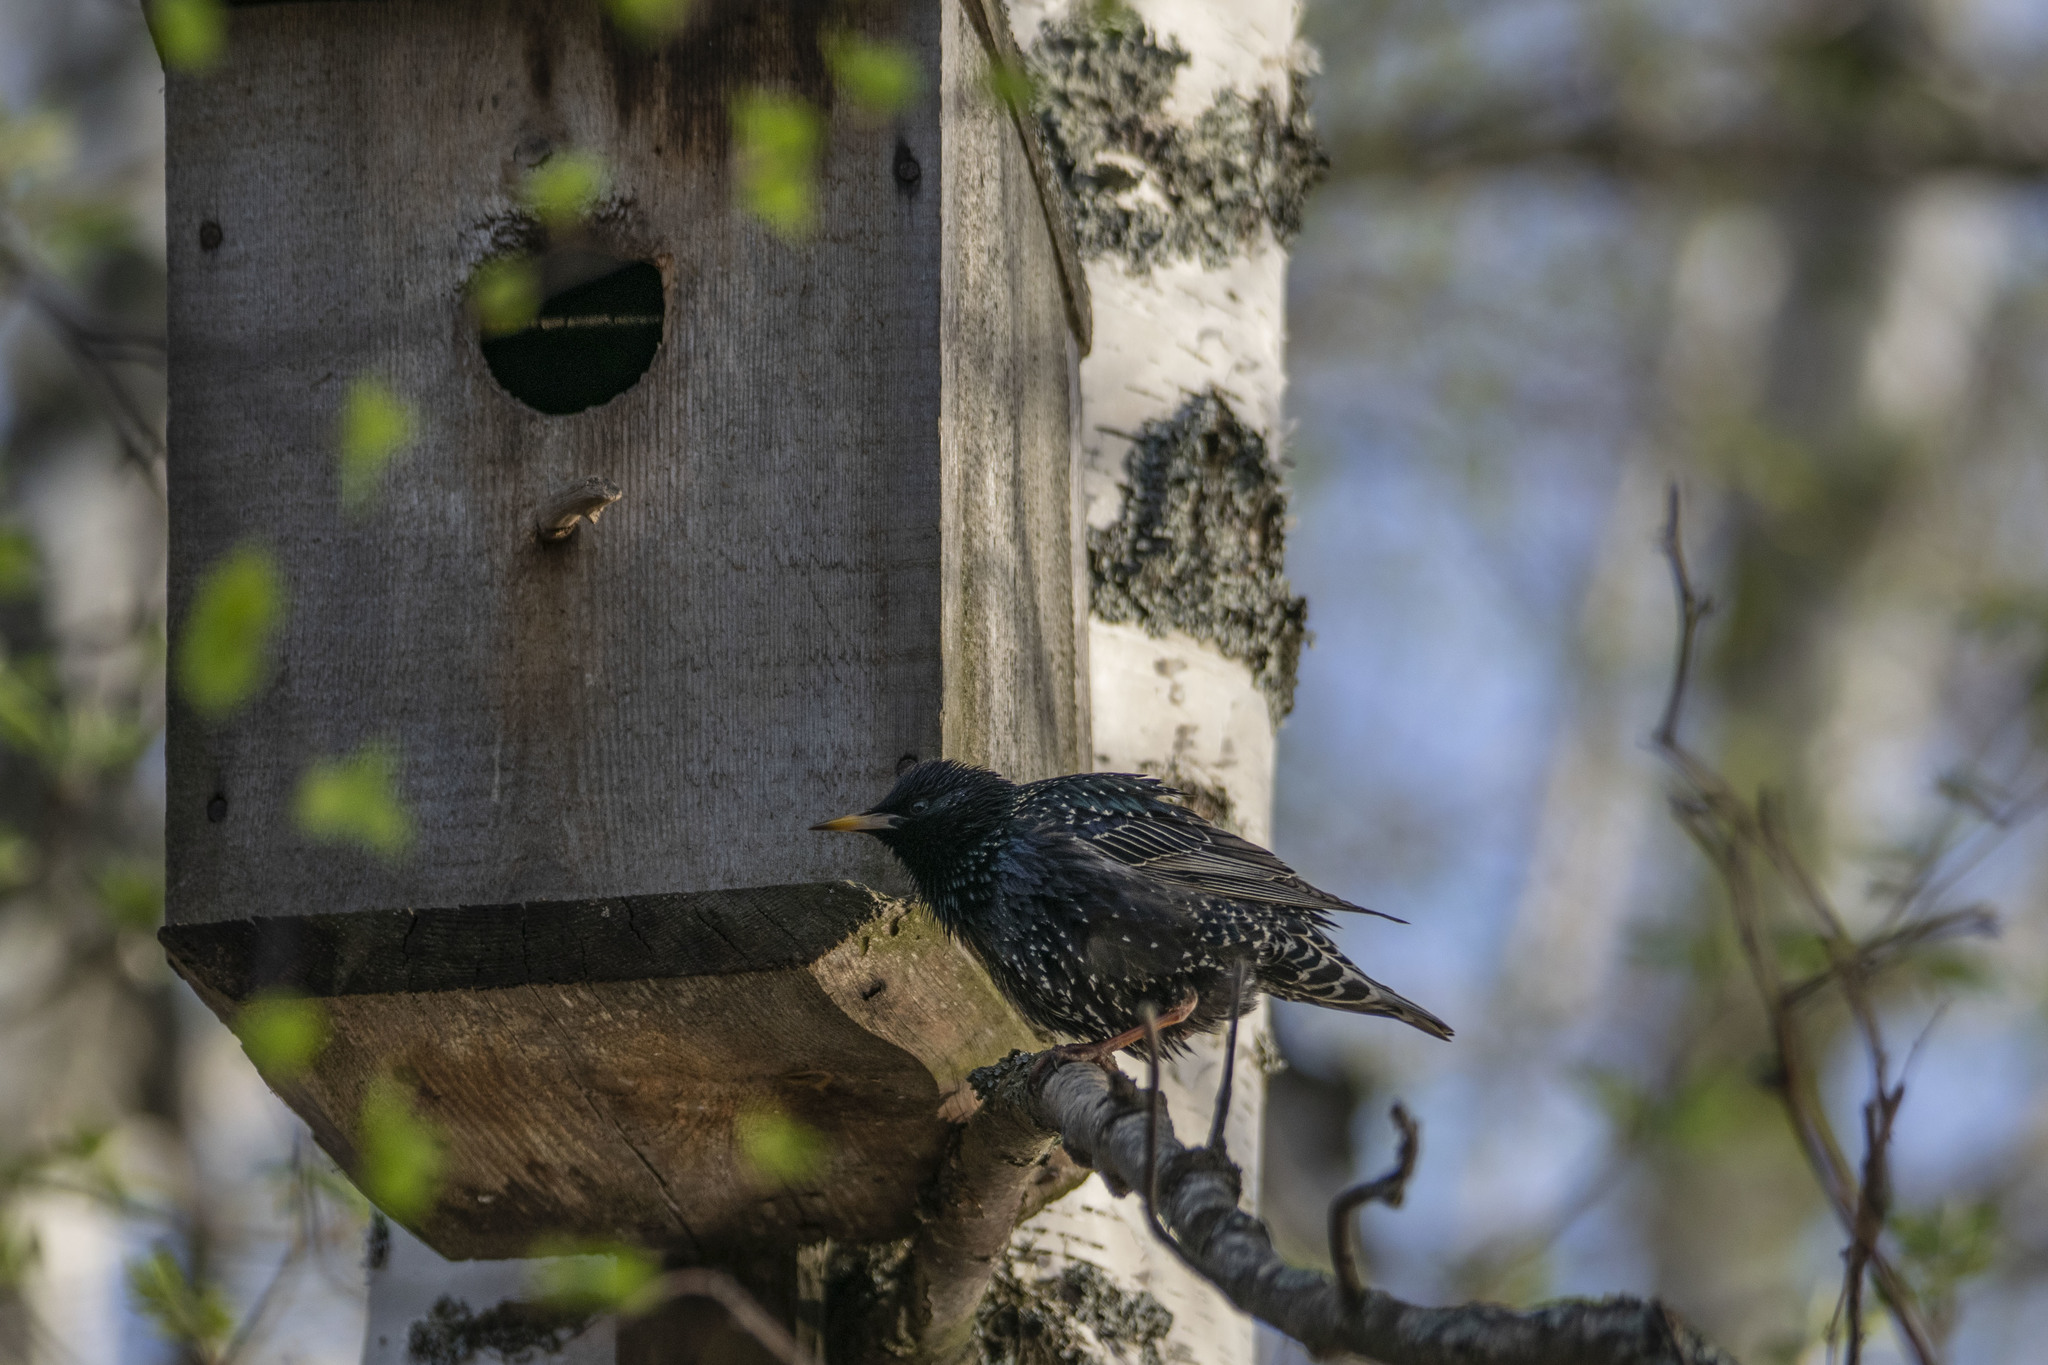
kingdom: Animalia
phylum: Chordata
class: Aves
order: Passeriformes
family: Sturnidae
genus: Sturnus
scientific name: Sturnus vulgaris
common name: Common starling
